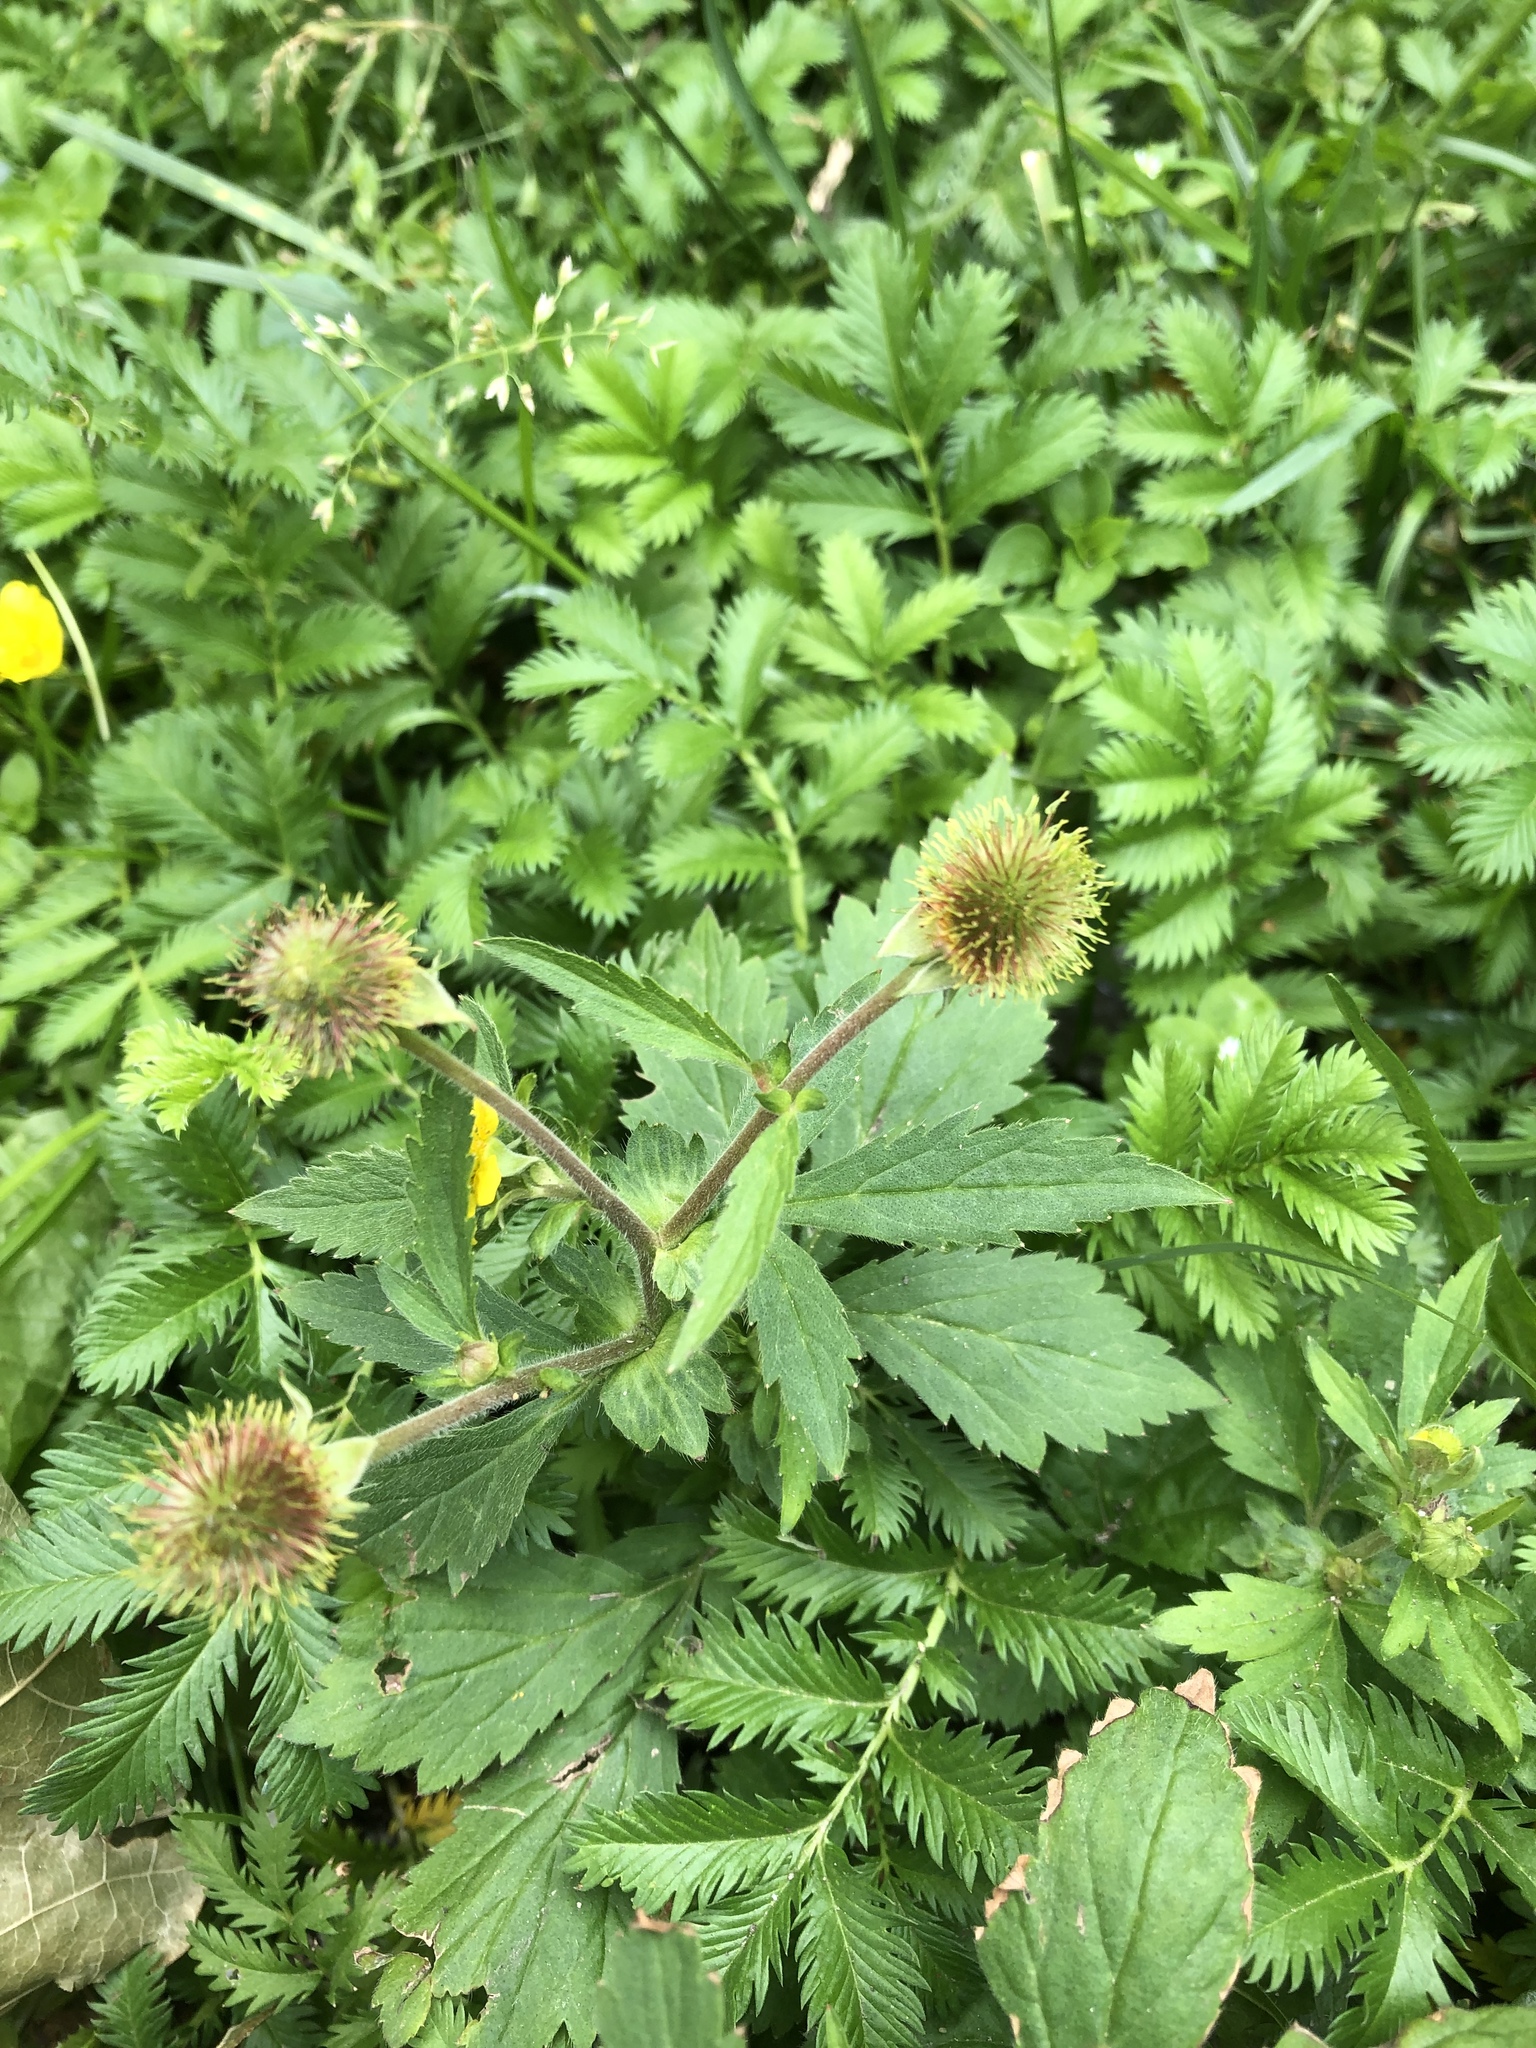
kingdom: Plantae
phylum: Tracheophyta
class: Magnoliopsida
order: Rosales
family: Rosaceae
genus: Geum
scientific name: Geum aleppicum
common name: Yellow avens
